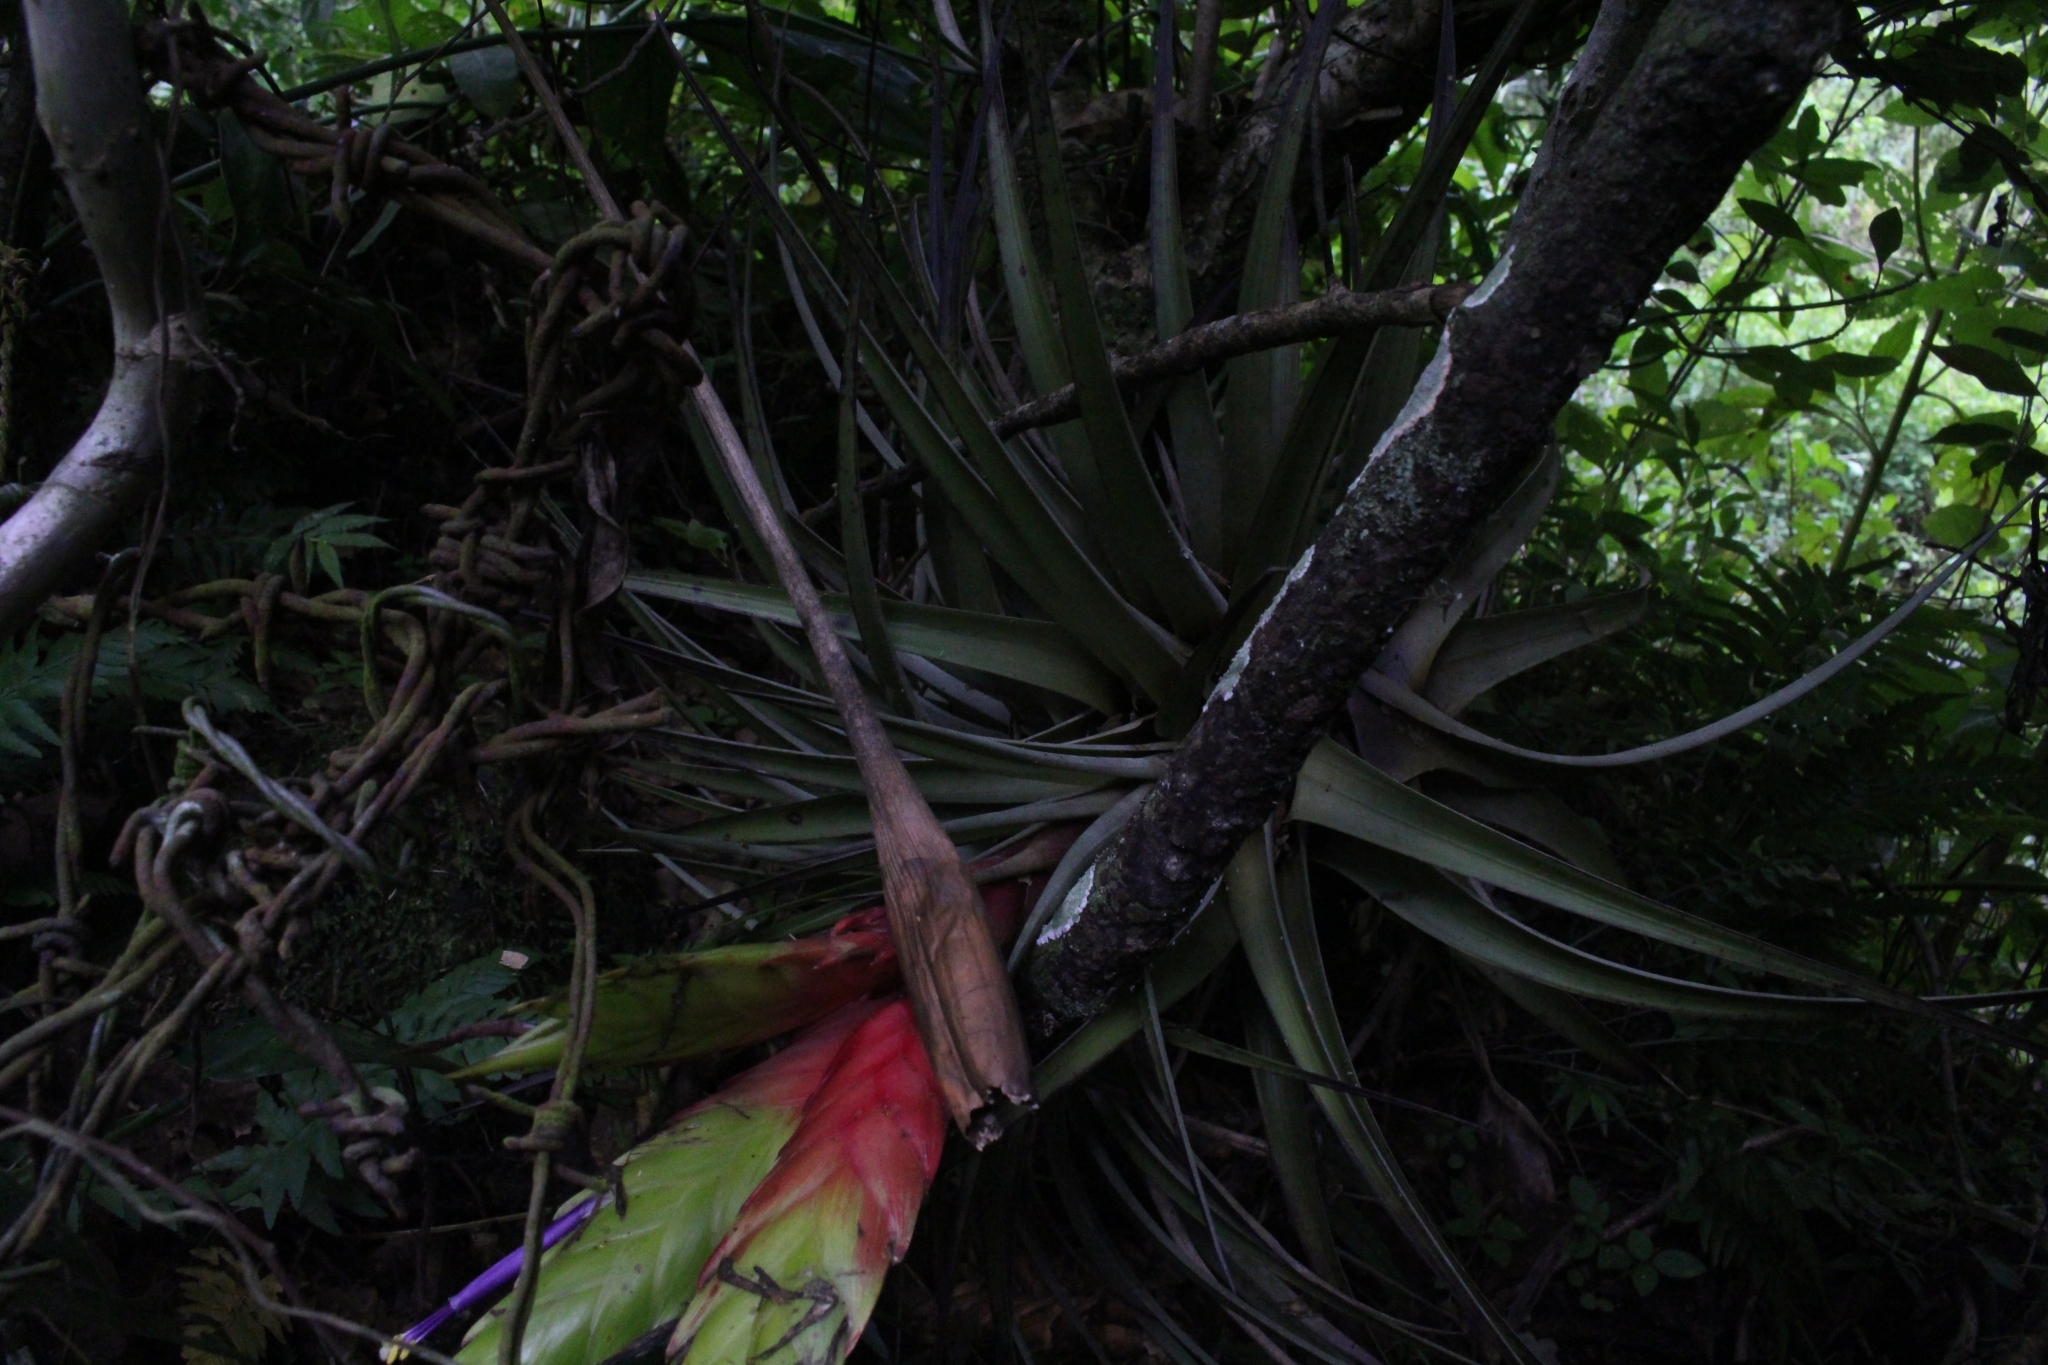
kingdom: Plantae
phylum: Tracheophyta
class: Liliopsida
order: Poales
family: Bromeliaceae
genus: Tillandsia
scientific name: Tillandsia fasciculata
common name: Giant airplant
